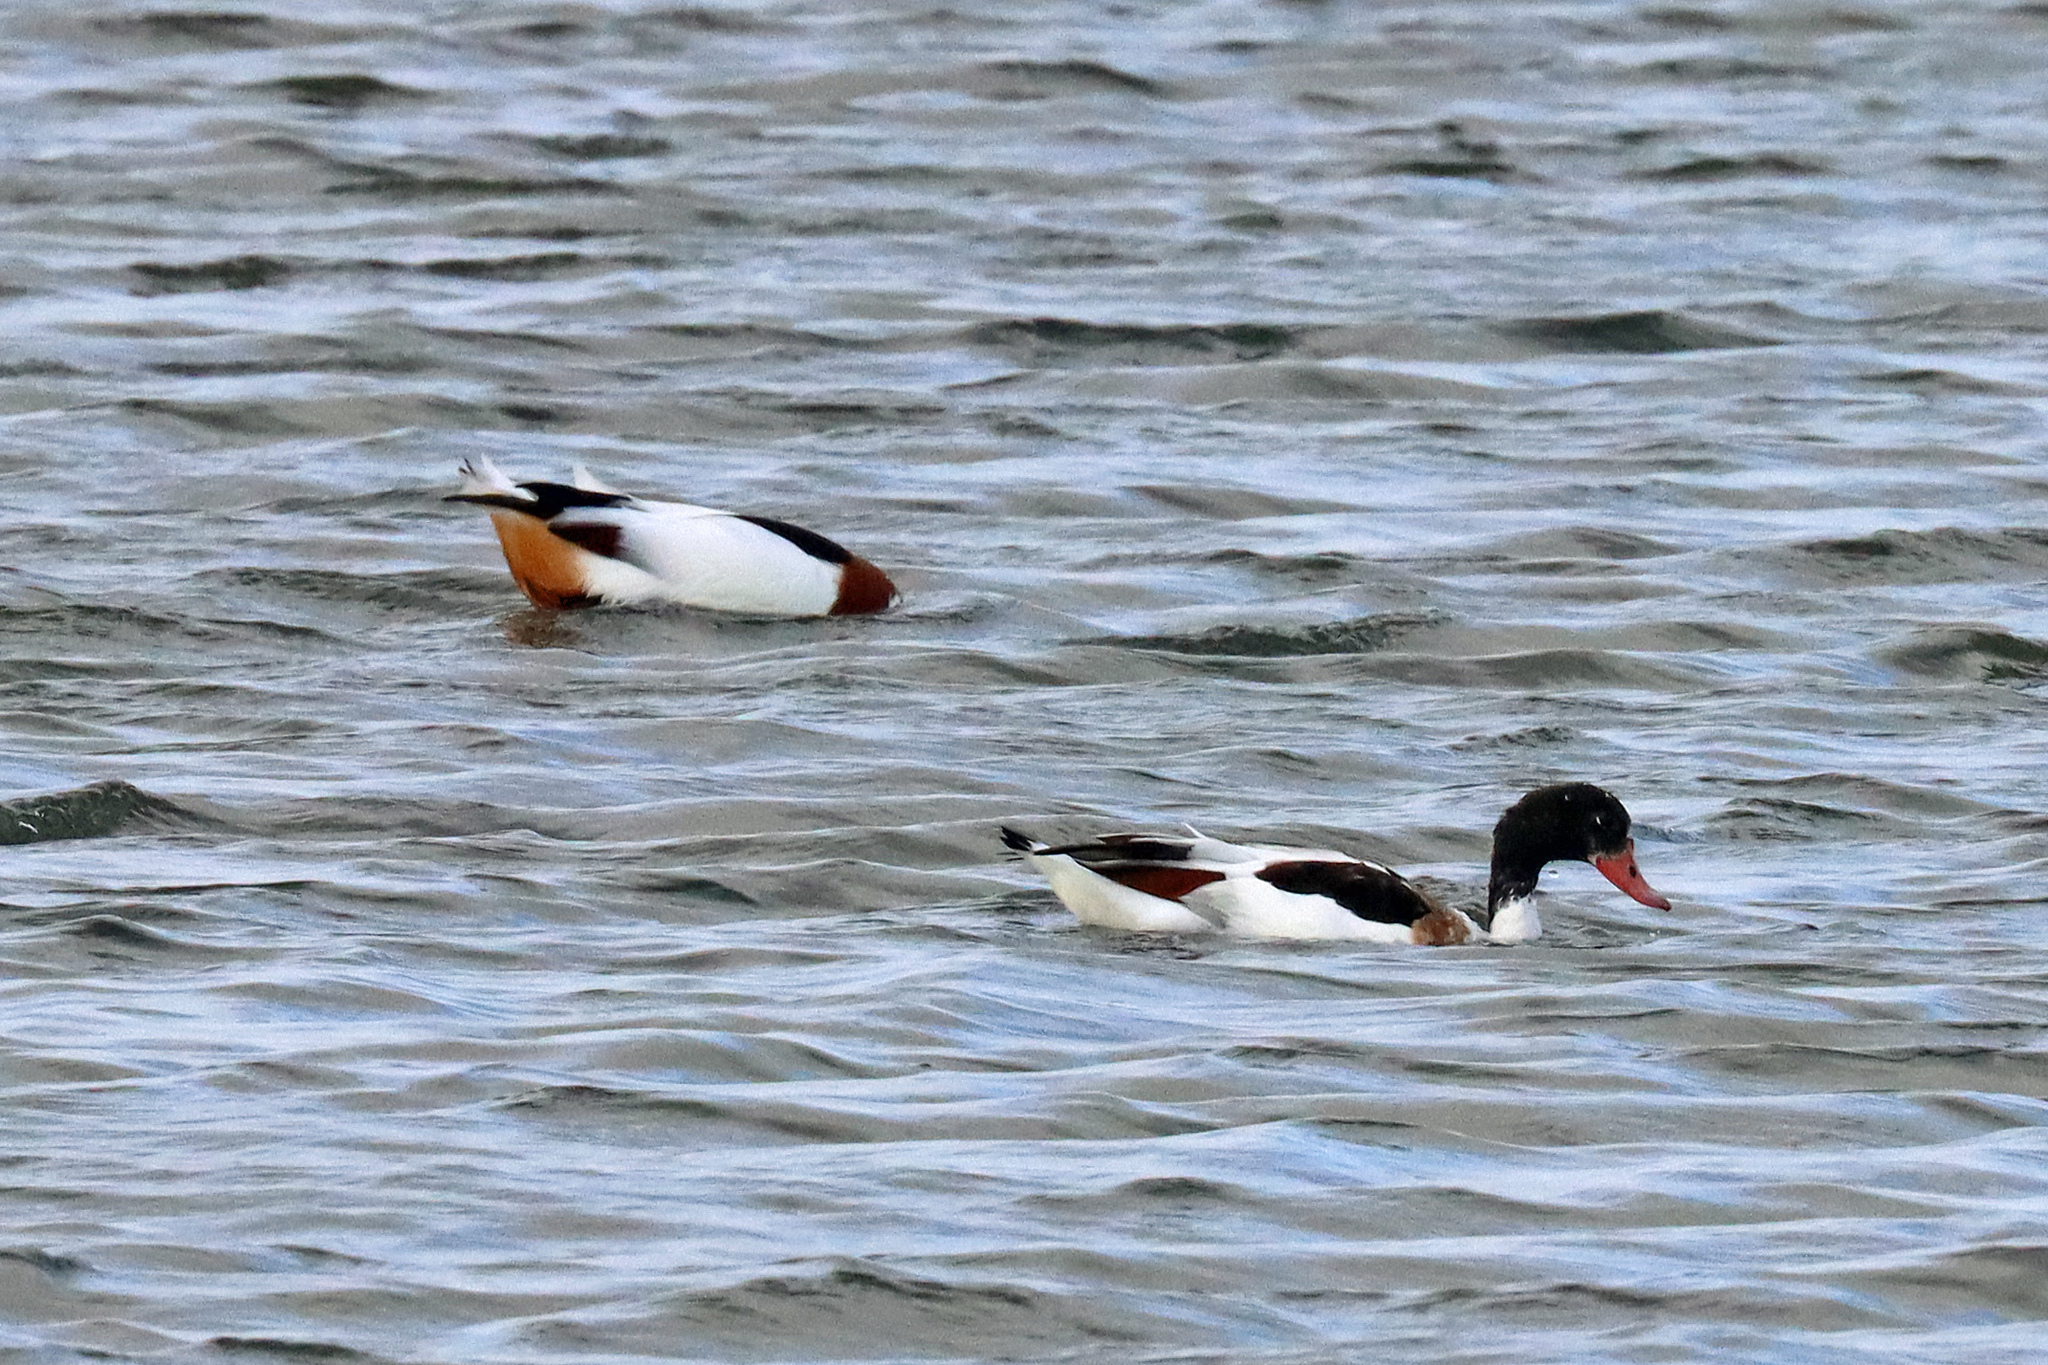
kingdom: Animalia
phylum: Chordata
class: Aves
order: Anseriformes
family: Anatidae
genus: Tadorna
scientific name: Tadorna tadorna
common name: Common shelduck
